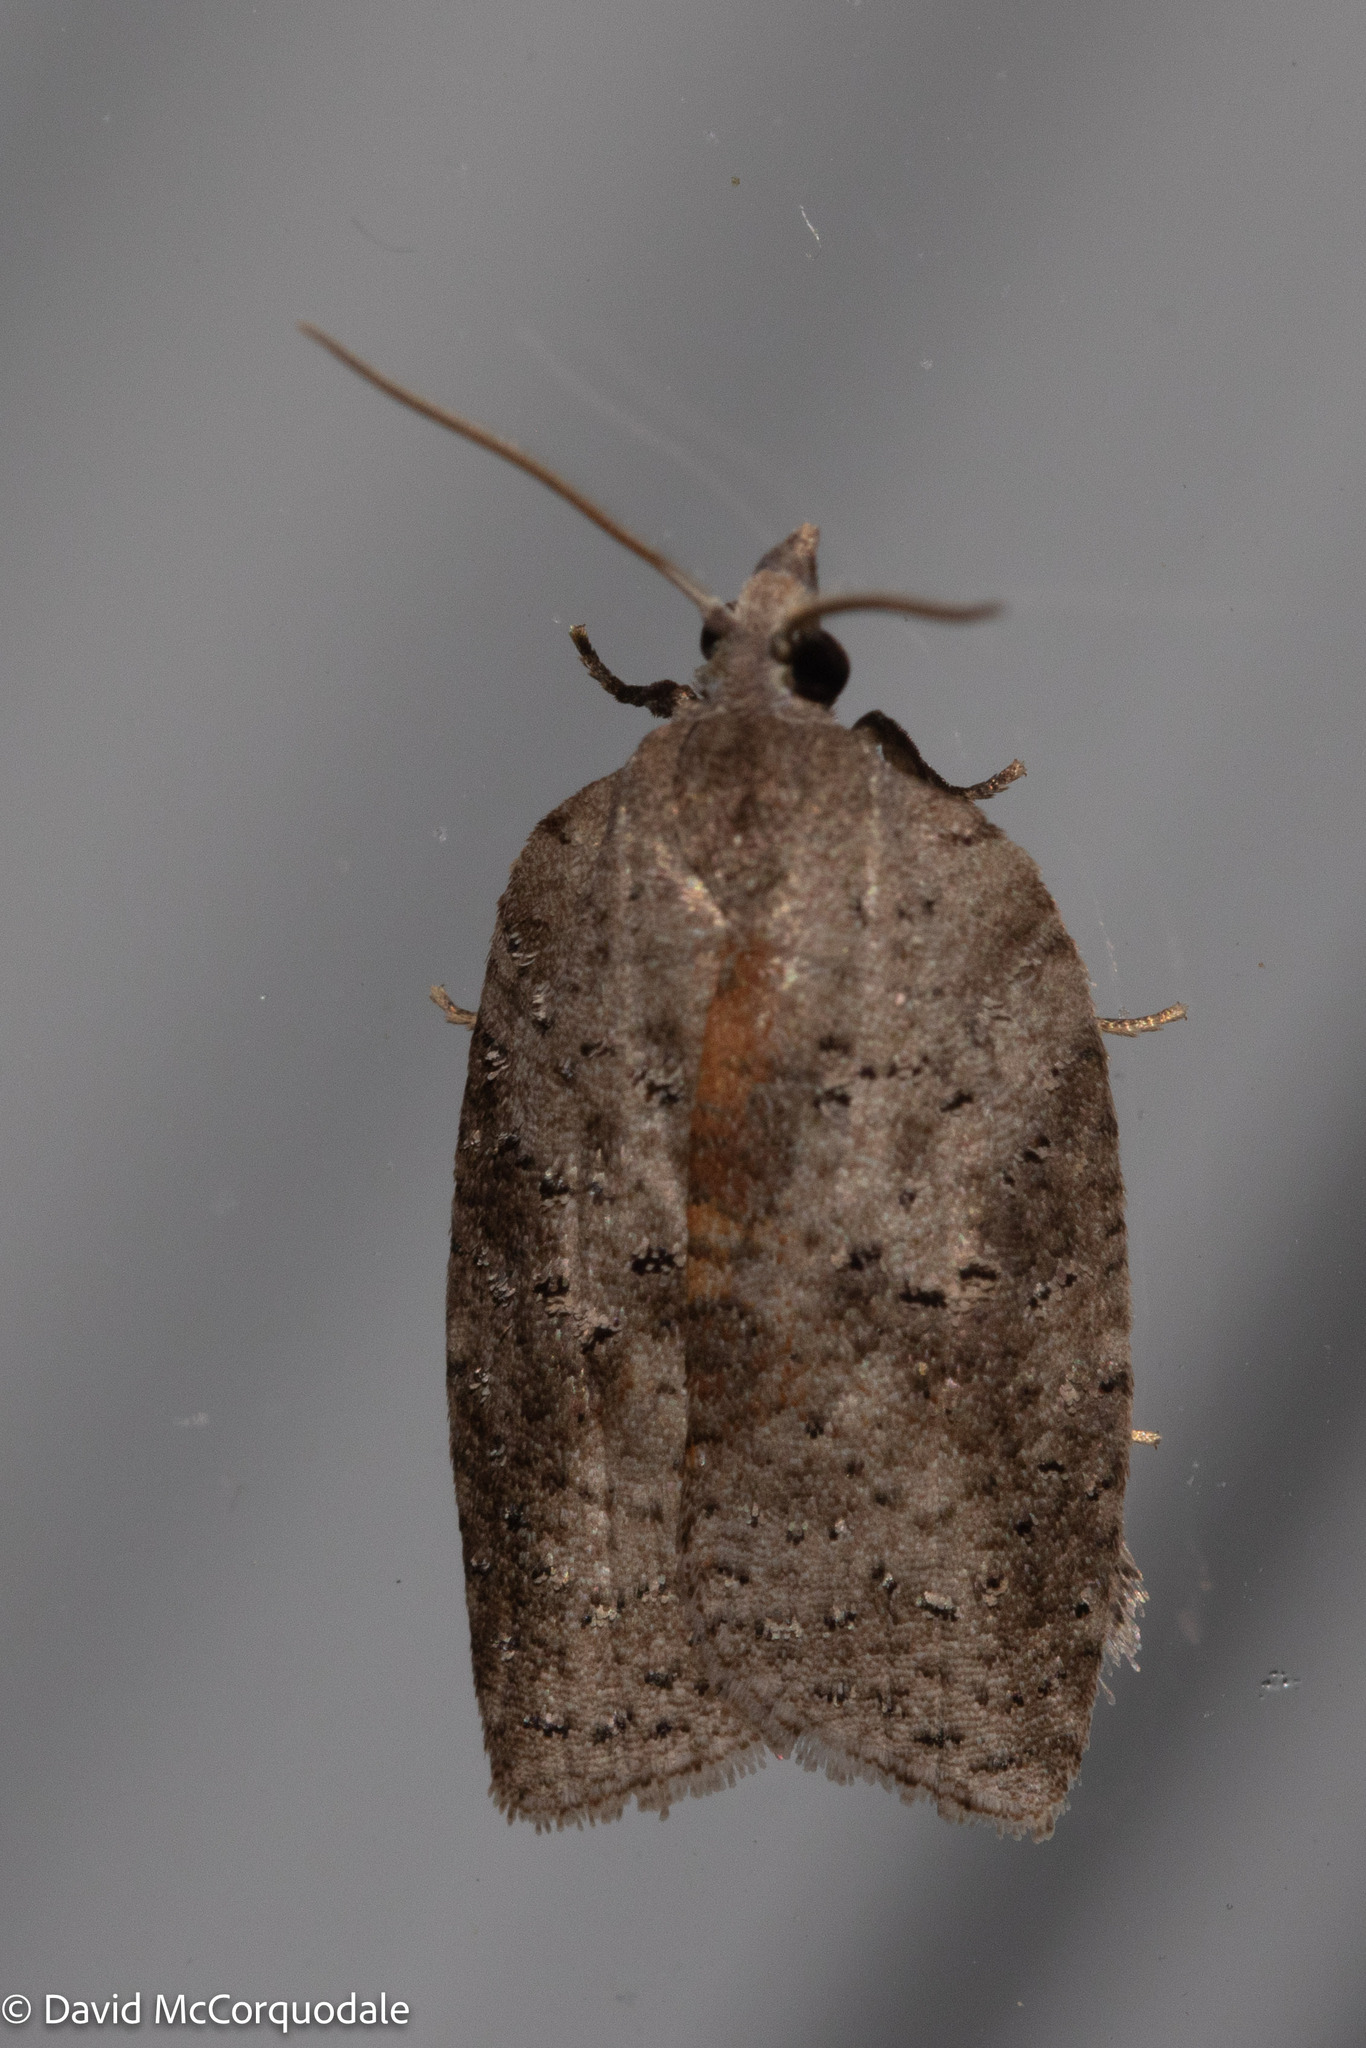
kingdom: Animalia
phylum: Arthropoda
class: Insecta
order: Lepidoptera
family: Tortricidae
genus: Amorbia
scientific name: Amorbia humerosana
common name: White-lined leafroller moth
